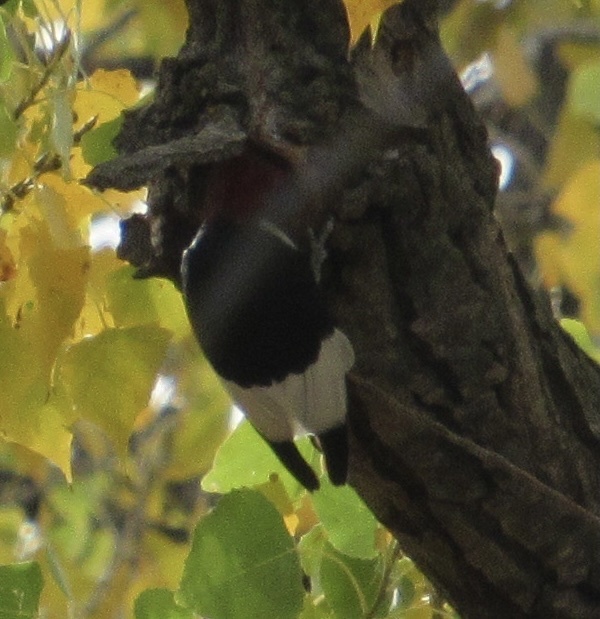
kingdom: Animalia
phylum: Chordata
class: Aves
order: Piciformes
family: Picidae
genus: Melanerpes
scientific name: Melanerpes erythrocephalus
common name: Red-headed woodpecker
